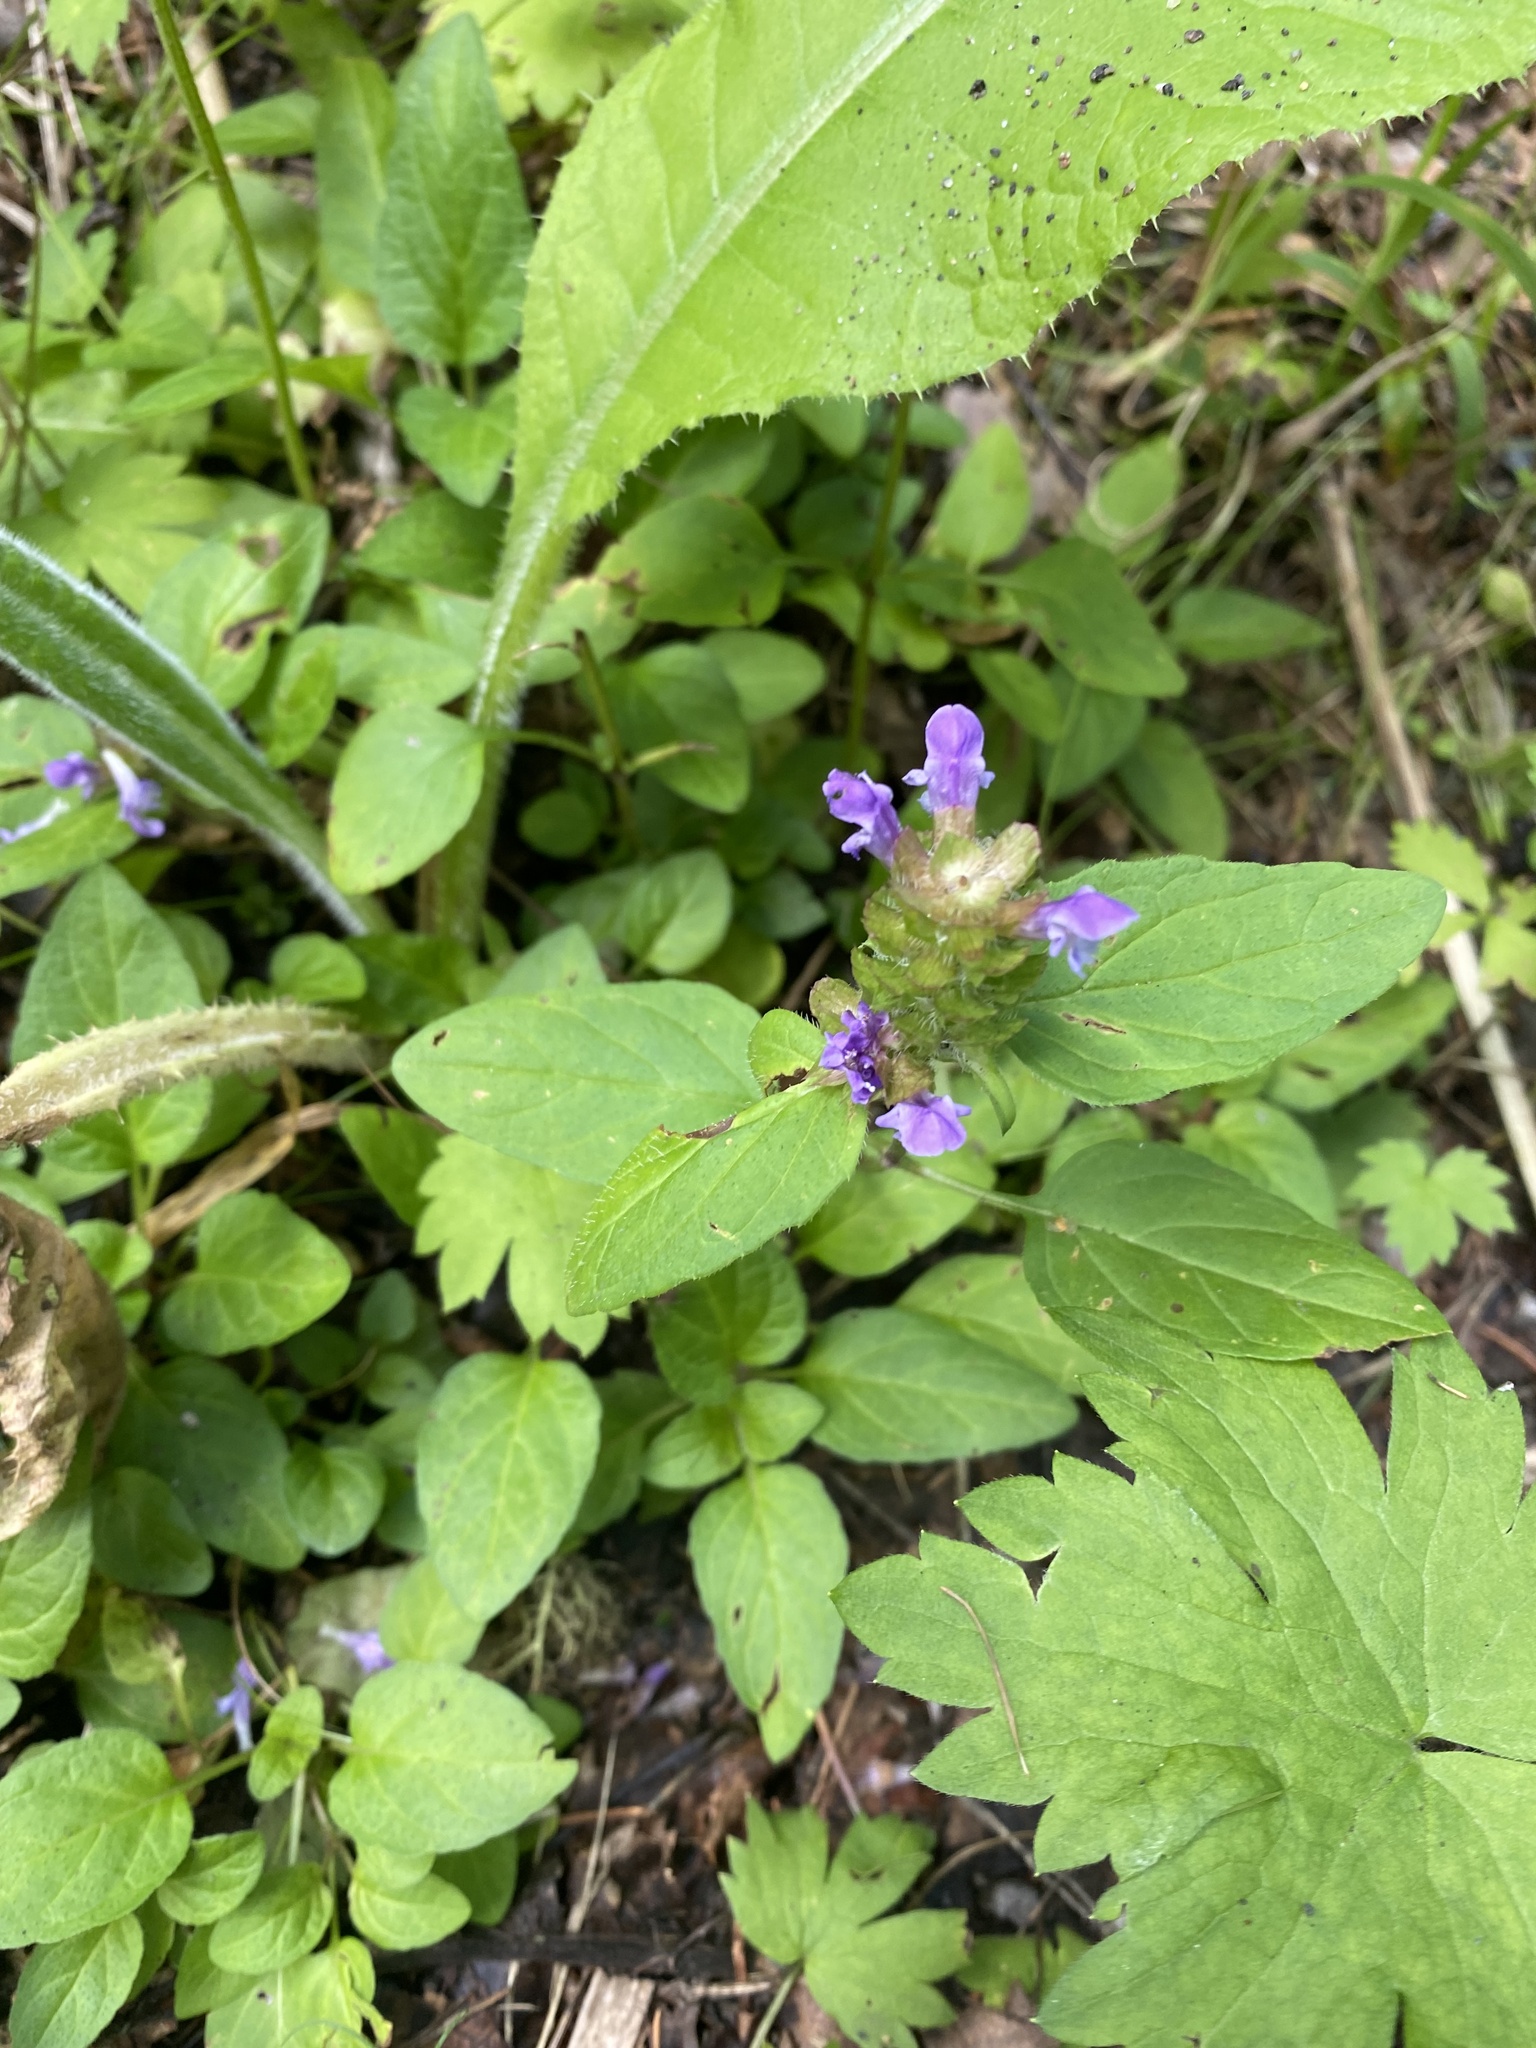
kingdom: Plantae
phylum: Tracheophyta
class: Magnoliopsida
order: Lamiales
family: Lamiaceae
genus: Prunella
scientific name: Prunella vulgaris
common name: Heal-all
